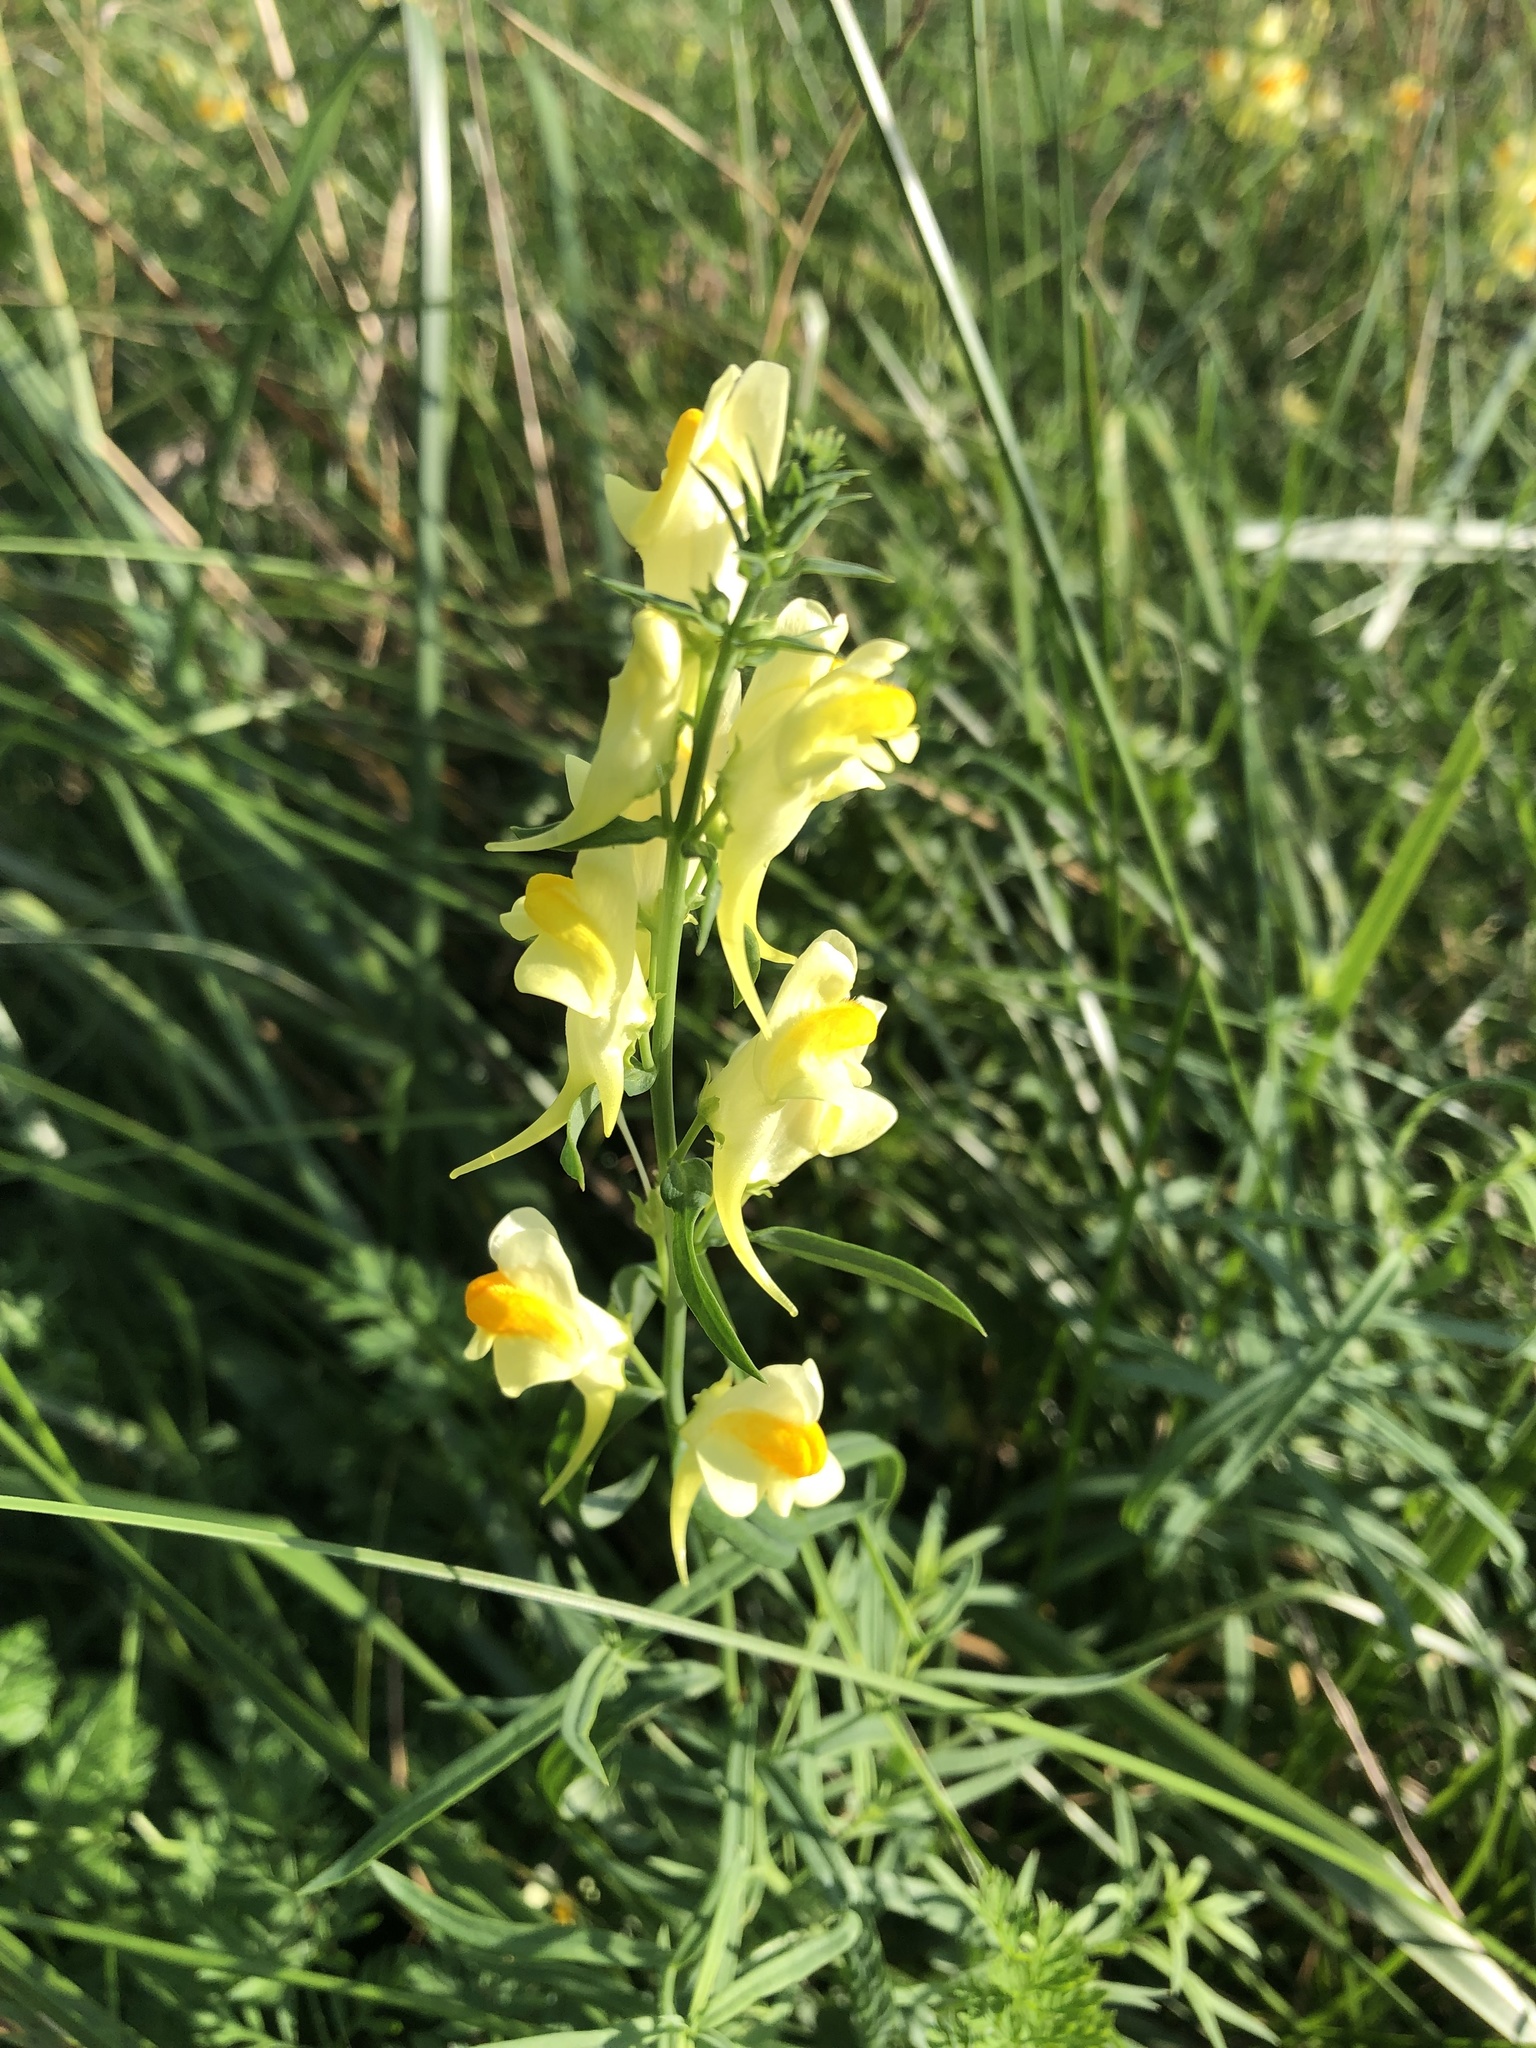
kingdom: Plantae
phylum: Tracheophyta
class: Magnoliopsida
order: Lamiales
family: Plantaginaceae
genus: Linaria
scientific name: Linaria vulgaris
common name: Butter and eggs
